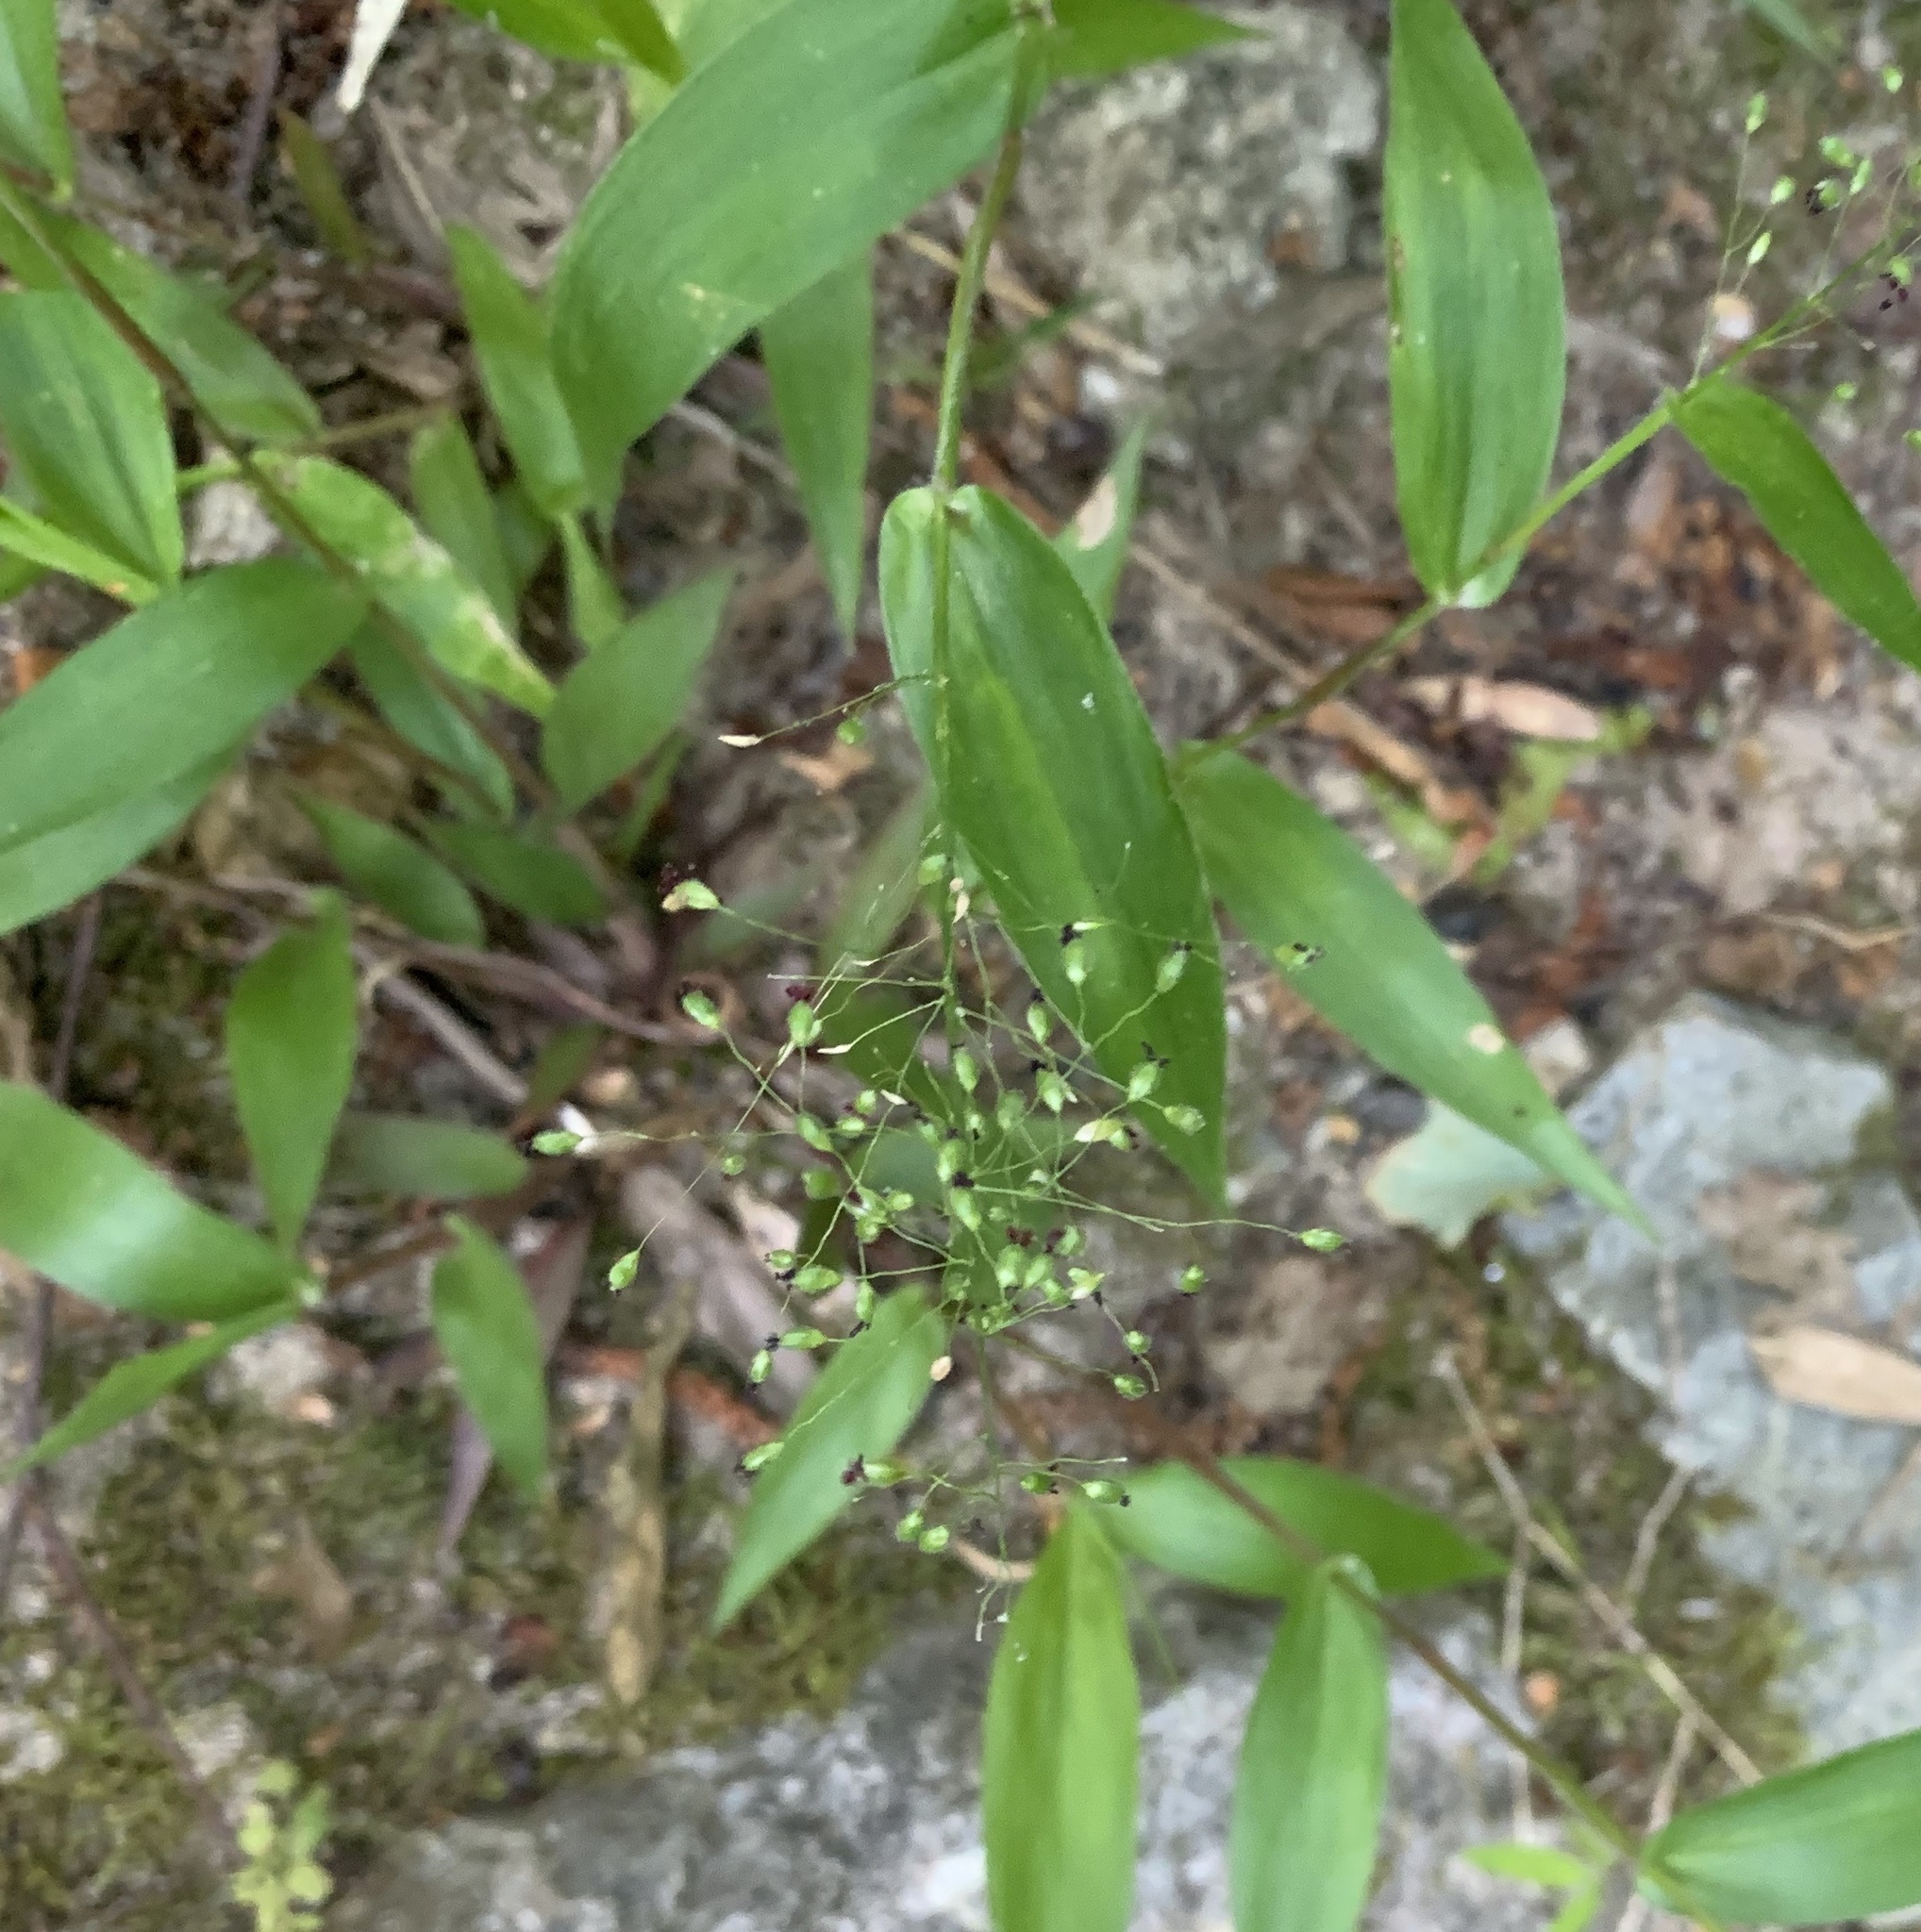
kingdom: Plantae
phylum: Tracheophyta
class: Liliopsida
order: Poales
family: Poaceae
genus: Dichanthelium
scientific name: Dichanthelium boscii
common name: Bosc's panic grass
